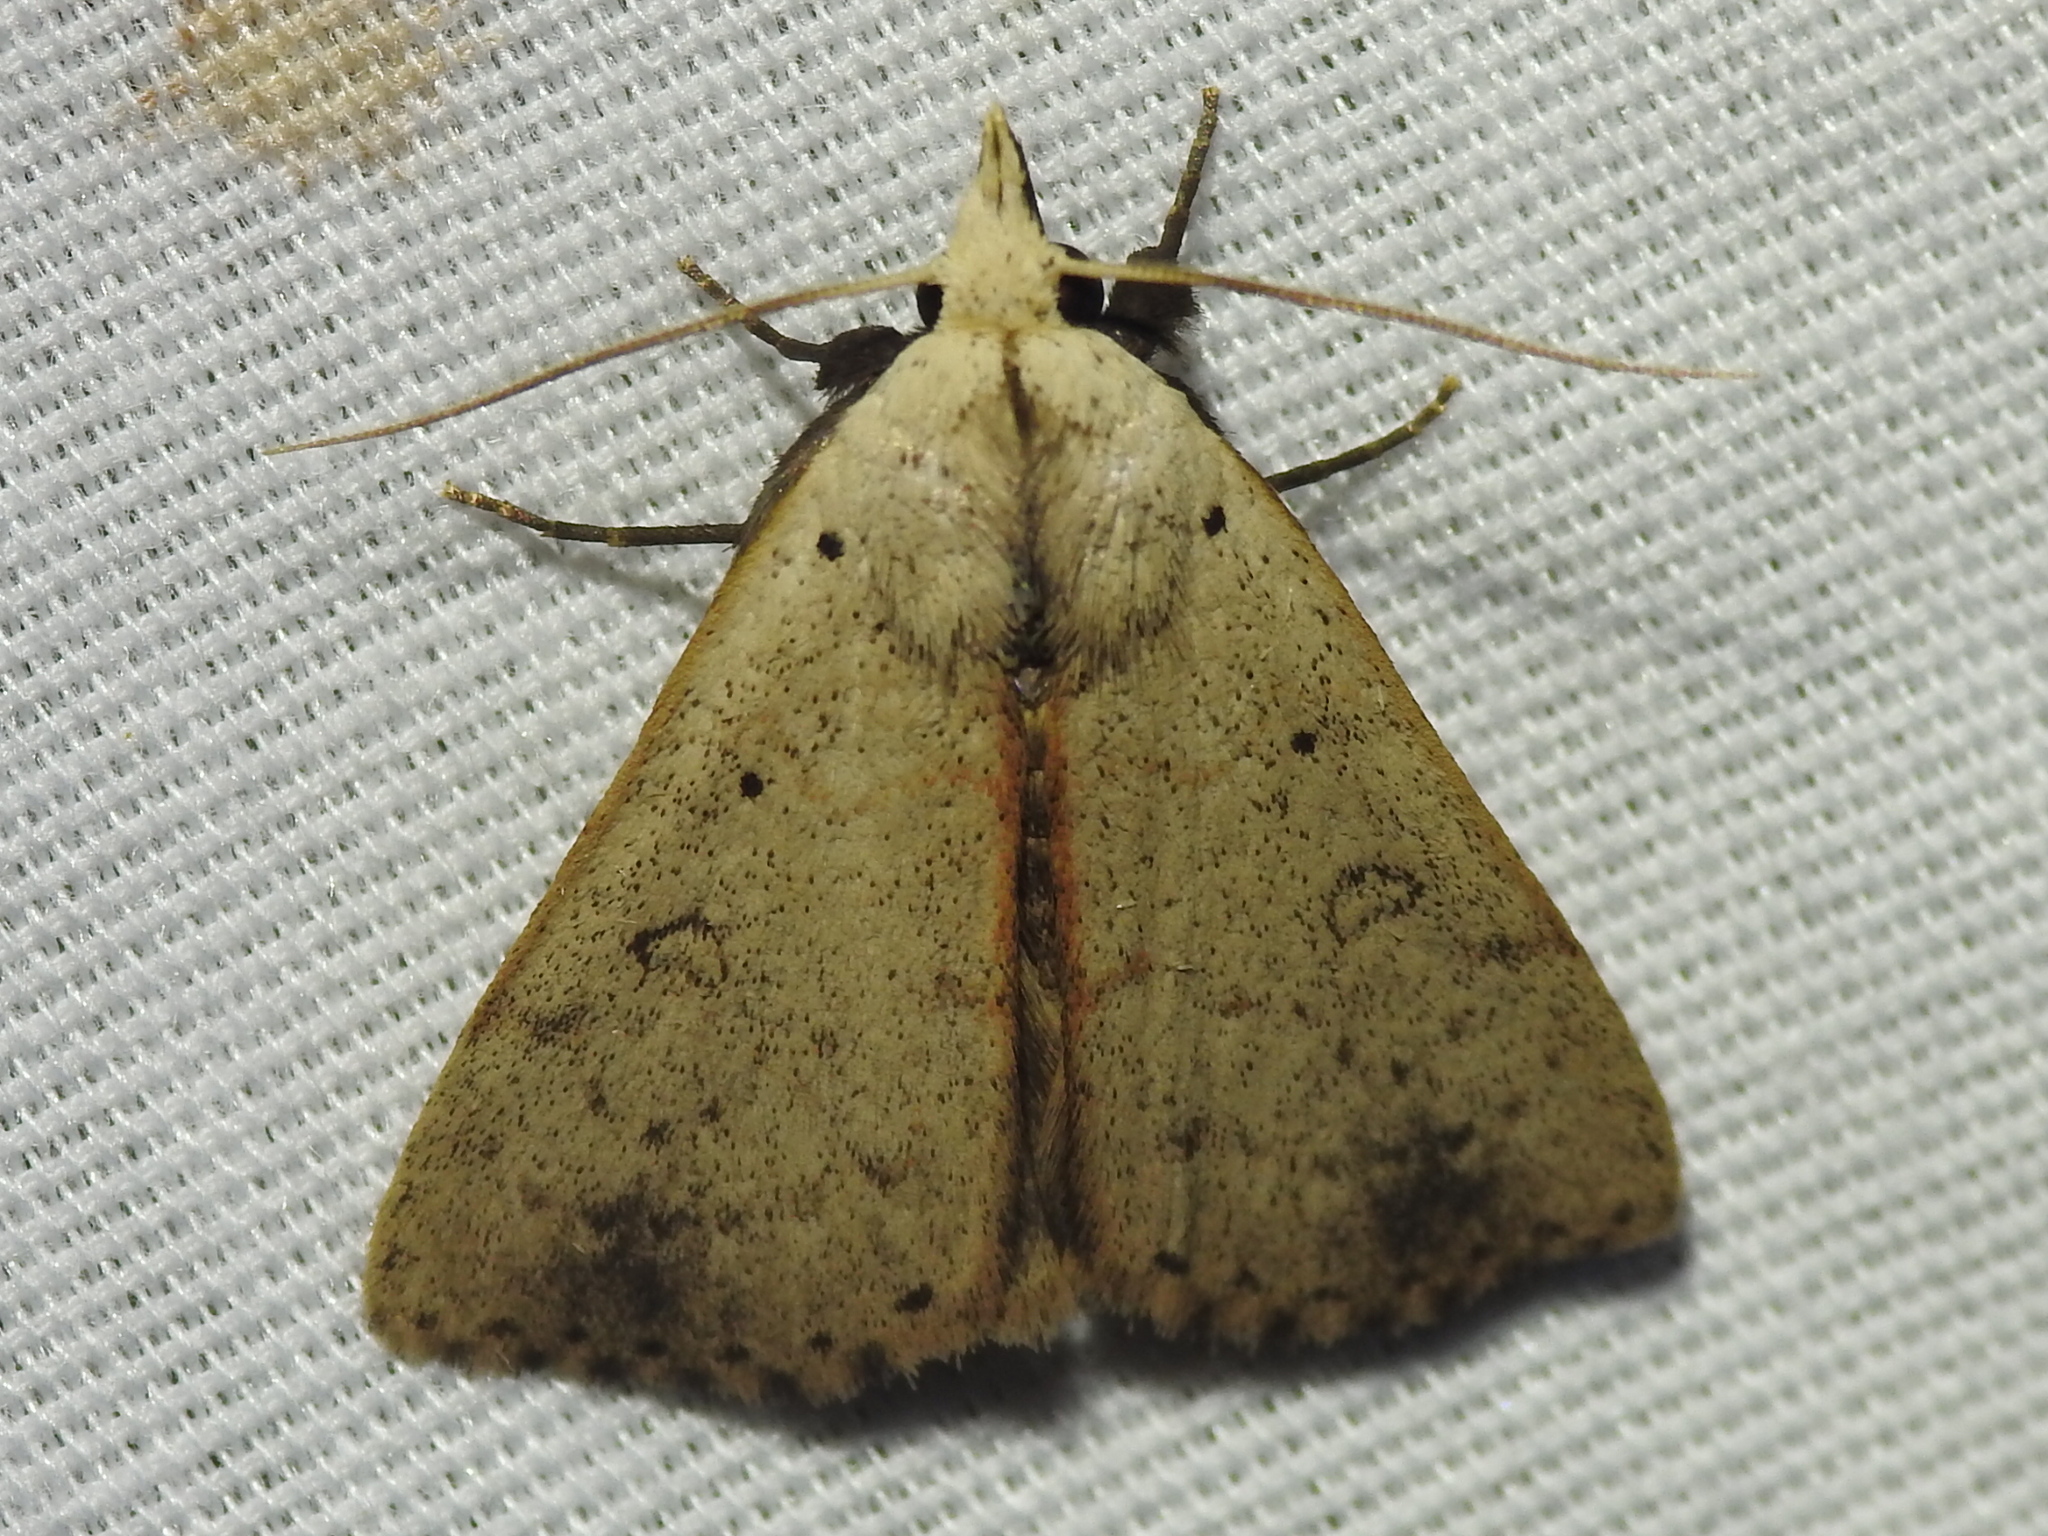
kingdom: Animalia
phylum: Arthropoda
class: Insecta
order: Lepidoptera
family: Erebidae
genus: Scolecocampa
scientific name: Scolecocampa liburna
